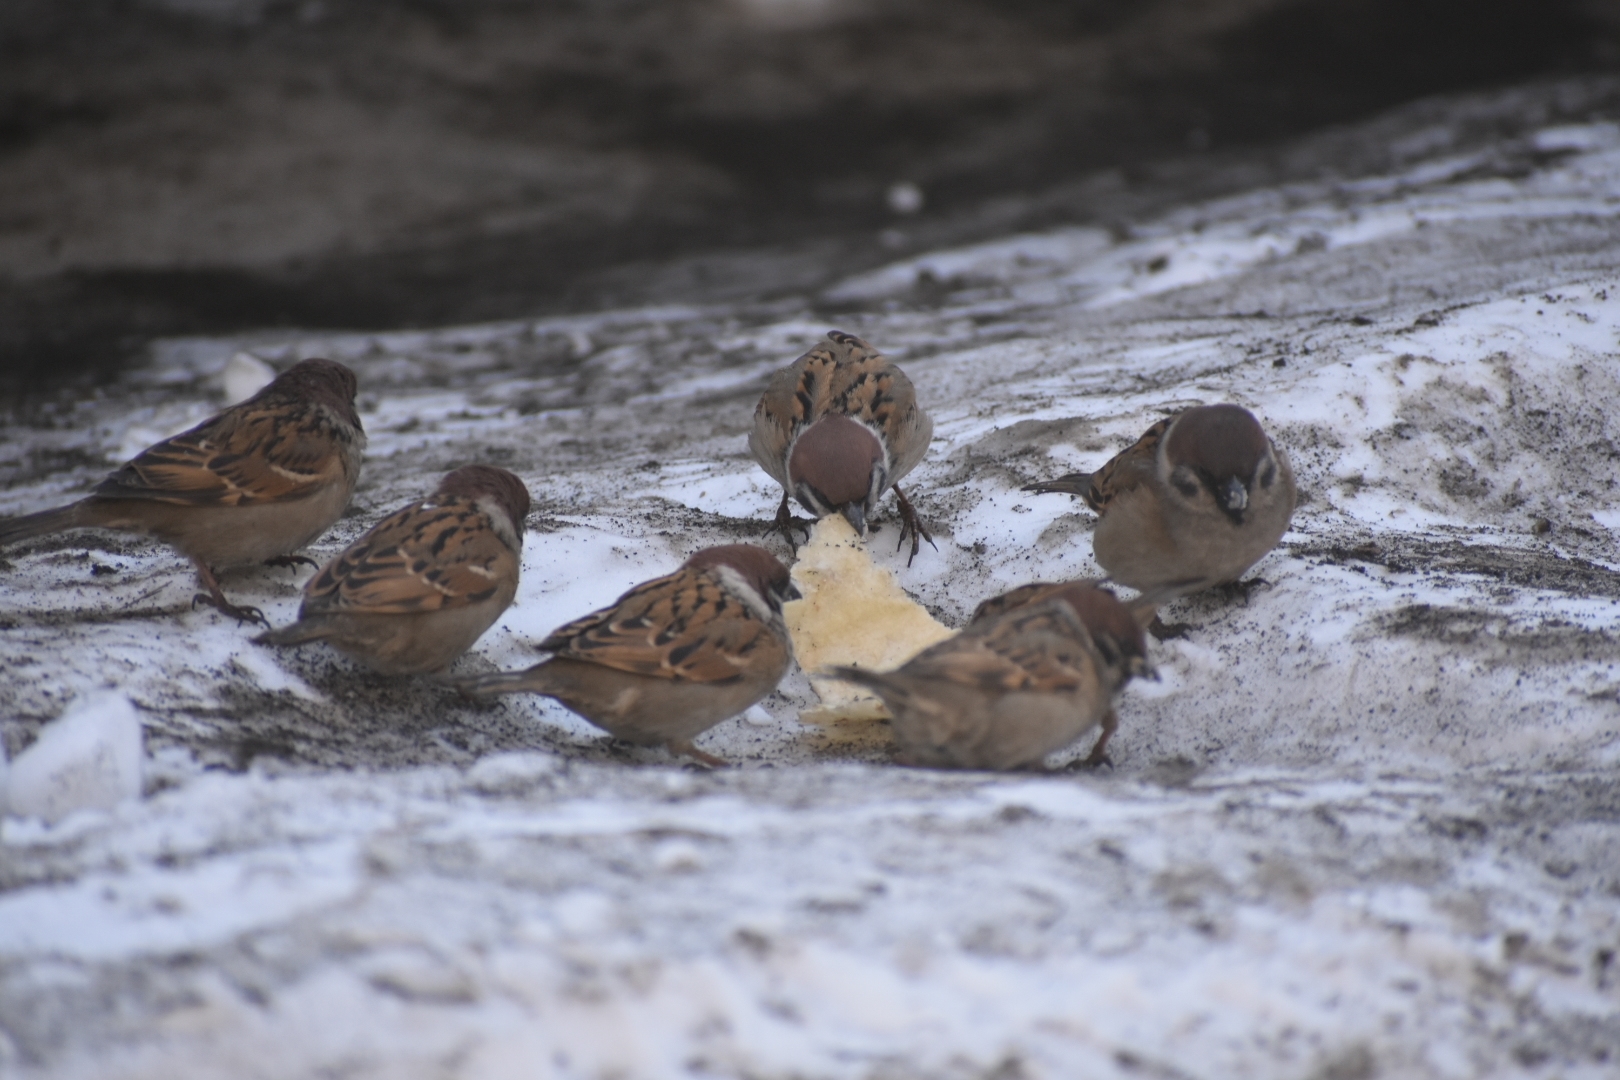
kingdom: Animalia
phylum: Chordata
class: Aves
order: Passeriformes
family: Passeridae
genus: Passer
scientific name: Passer montanus
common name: Eurasian tree sparrow
